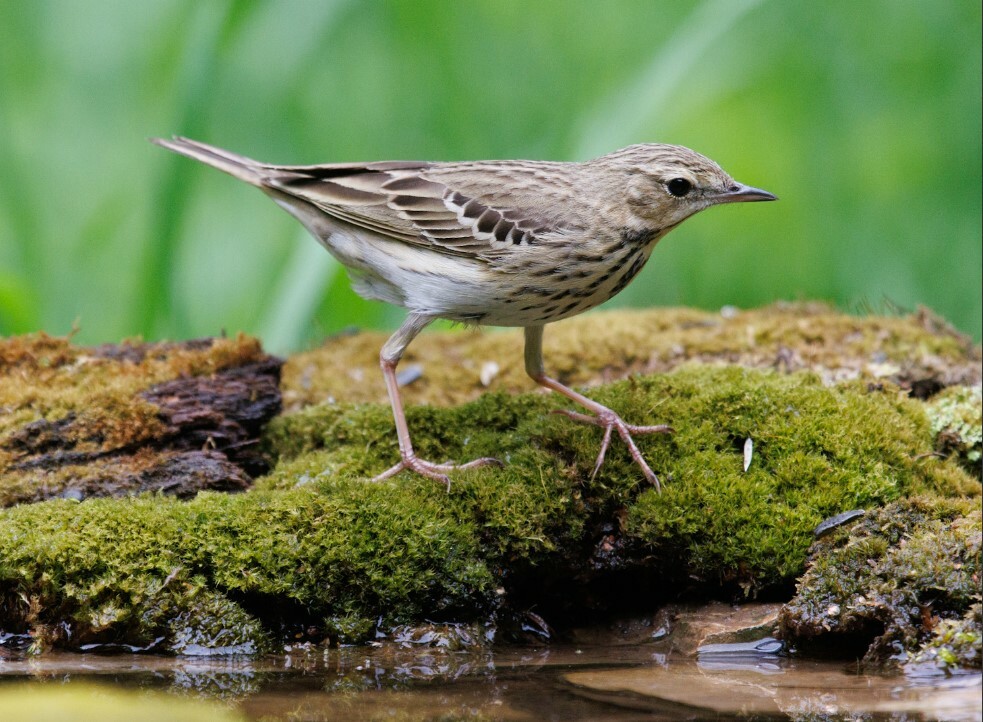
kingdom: Animalia
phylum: Chordata
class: Aves
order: Passeriformes
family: Motacillidae
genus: Anthus
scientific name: Anthus trivialis
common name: Tree pipit
